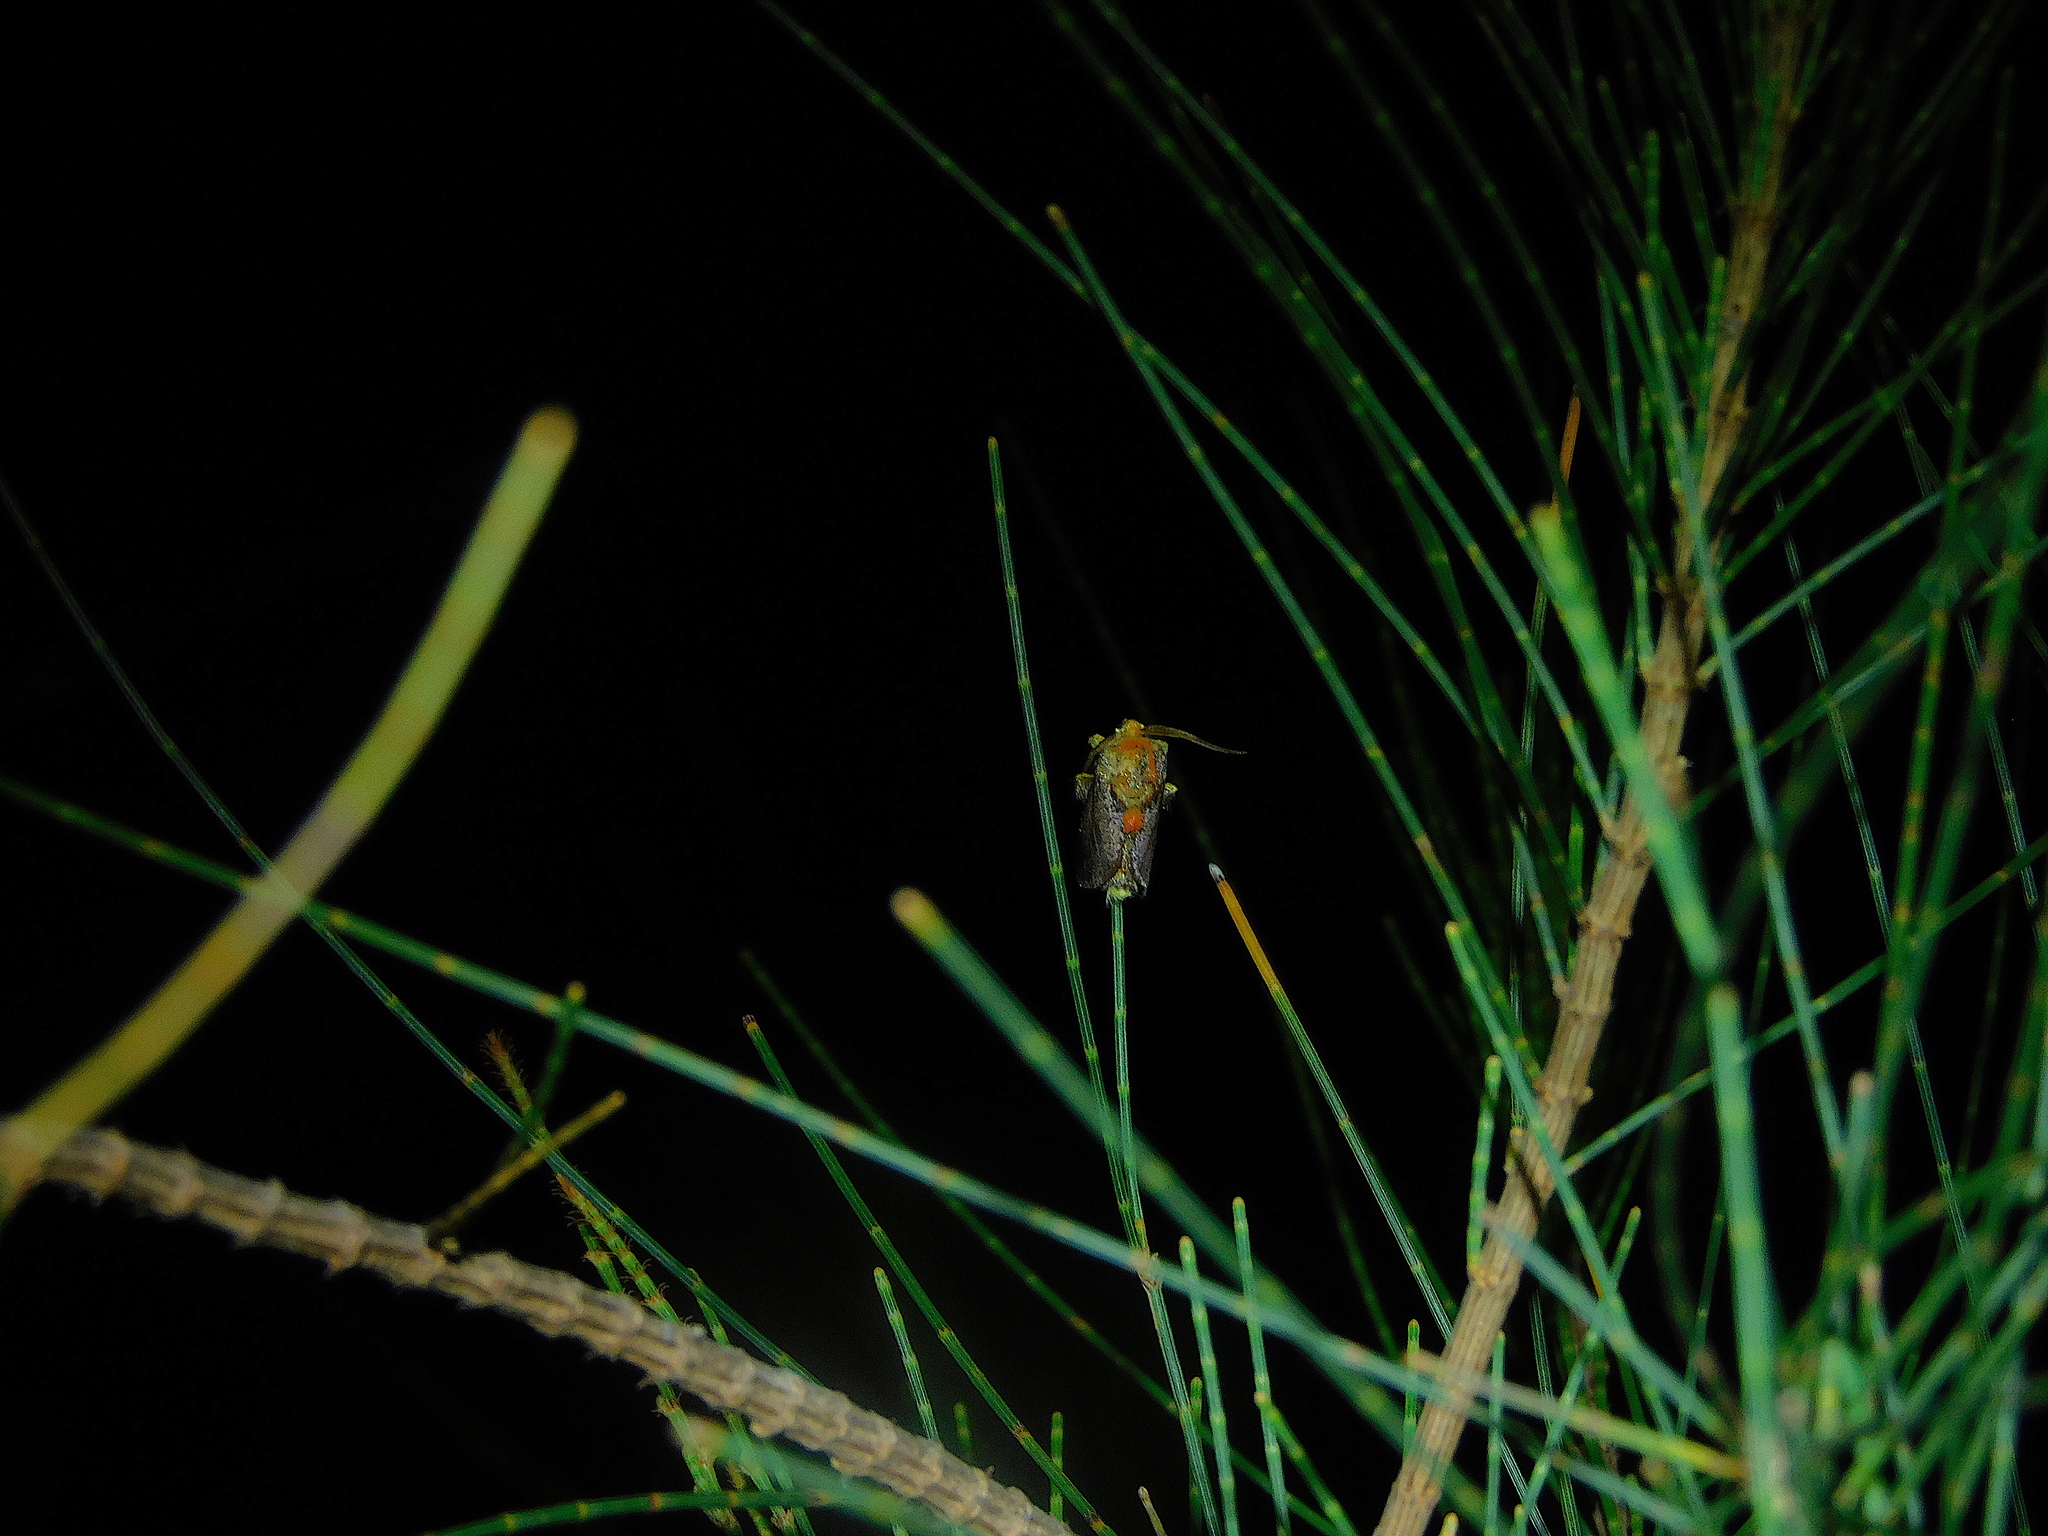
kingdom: Animalia
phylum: Arthropoda
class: Insecta
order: Lepidoptera
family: Limacodidae
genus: Doratifera
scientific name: Doratifera oxleyi
